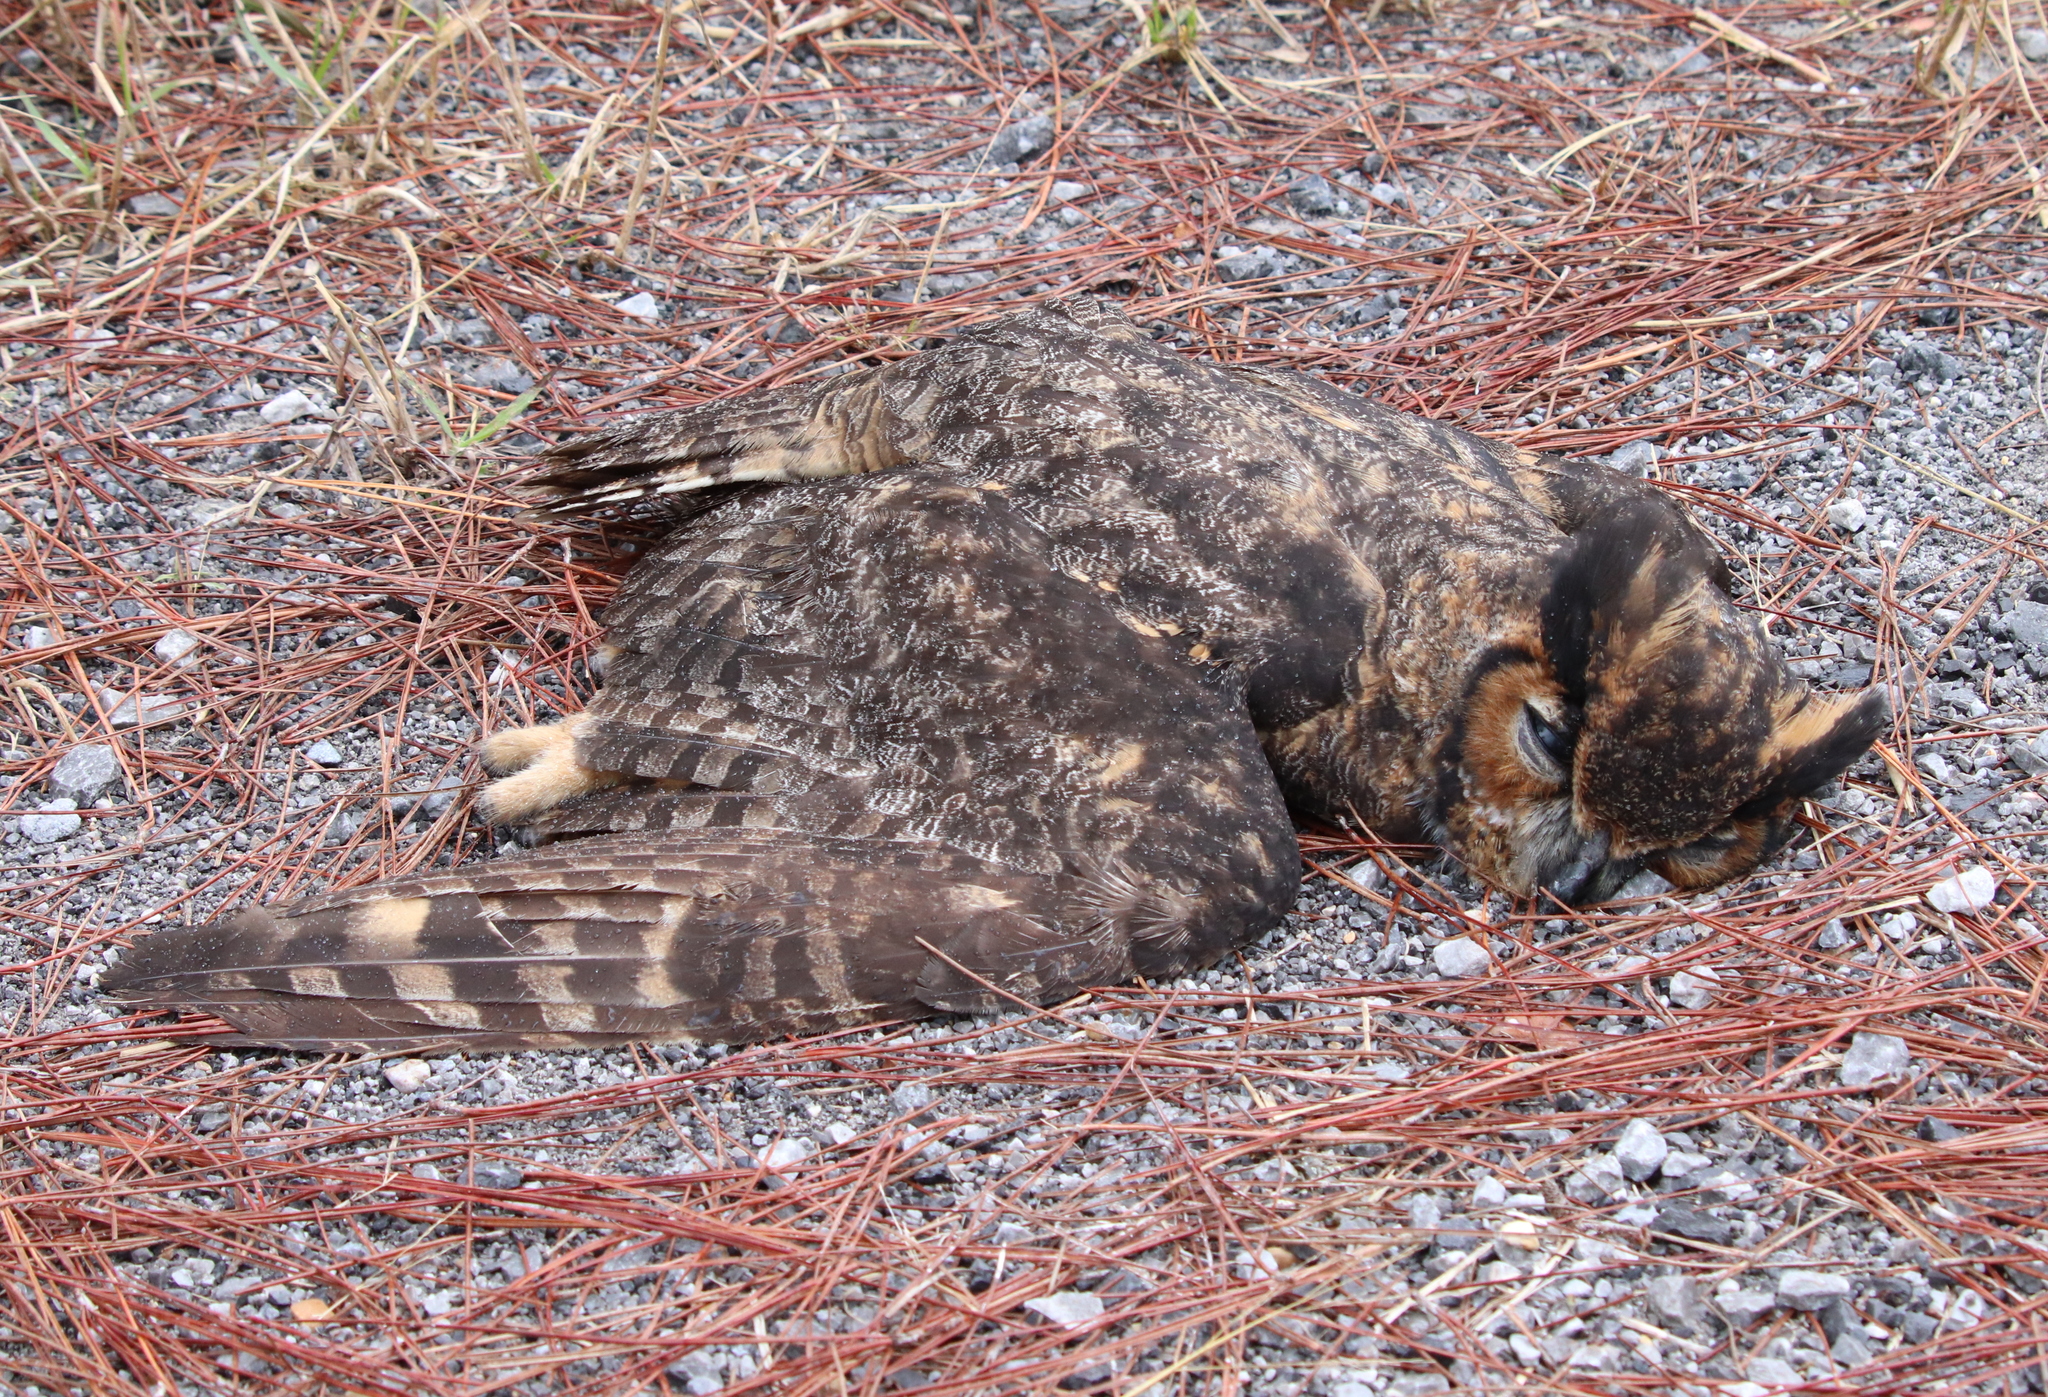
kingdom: Animalia
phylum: Chordata
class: Aves
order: Strigiformes
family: Strigidae
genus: Bubo
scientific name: Bubo virginianus
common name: Great horned owl
